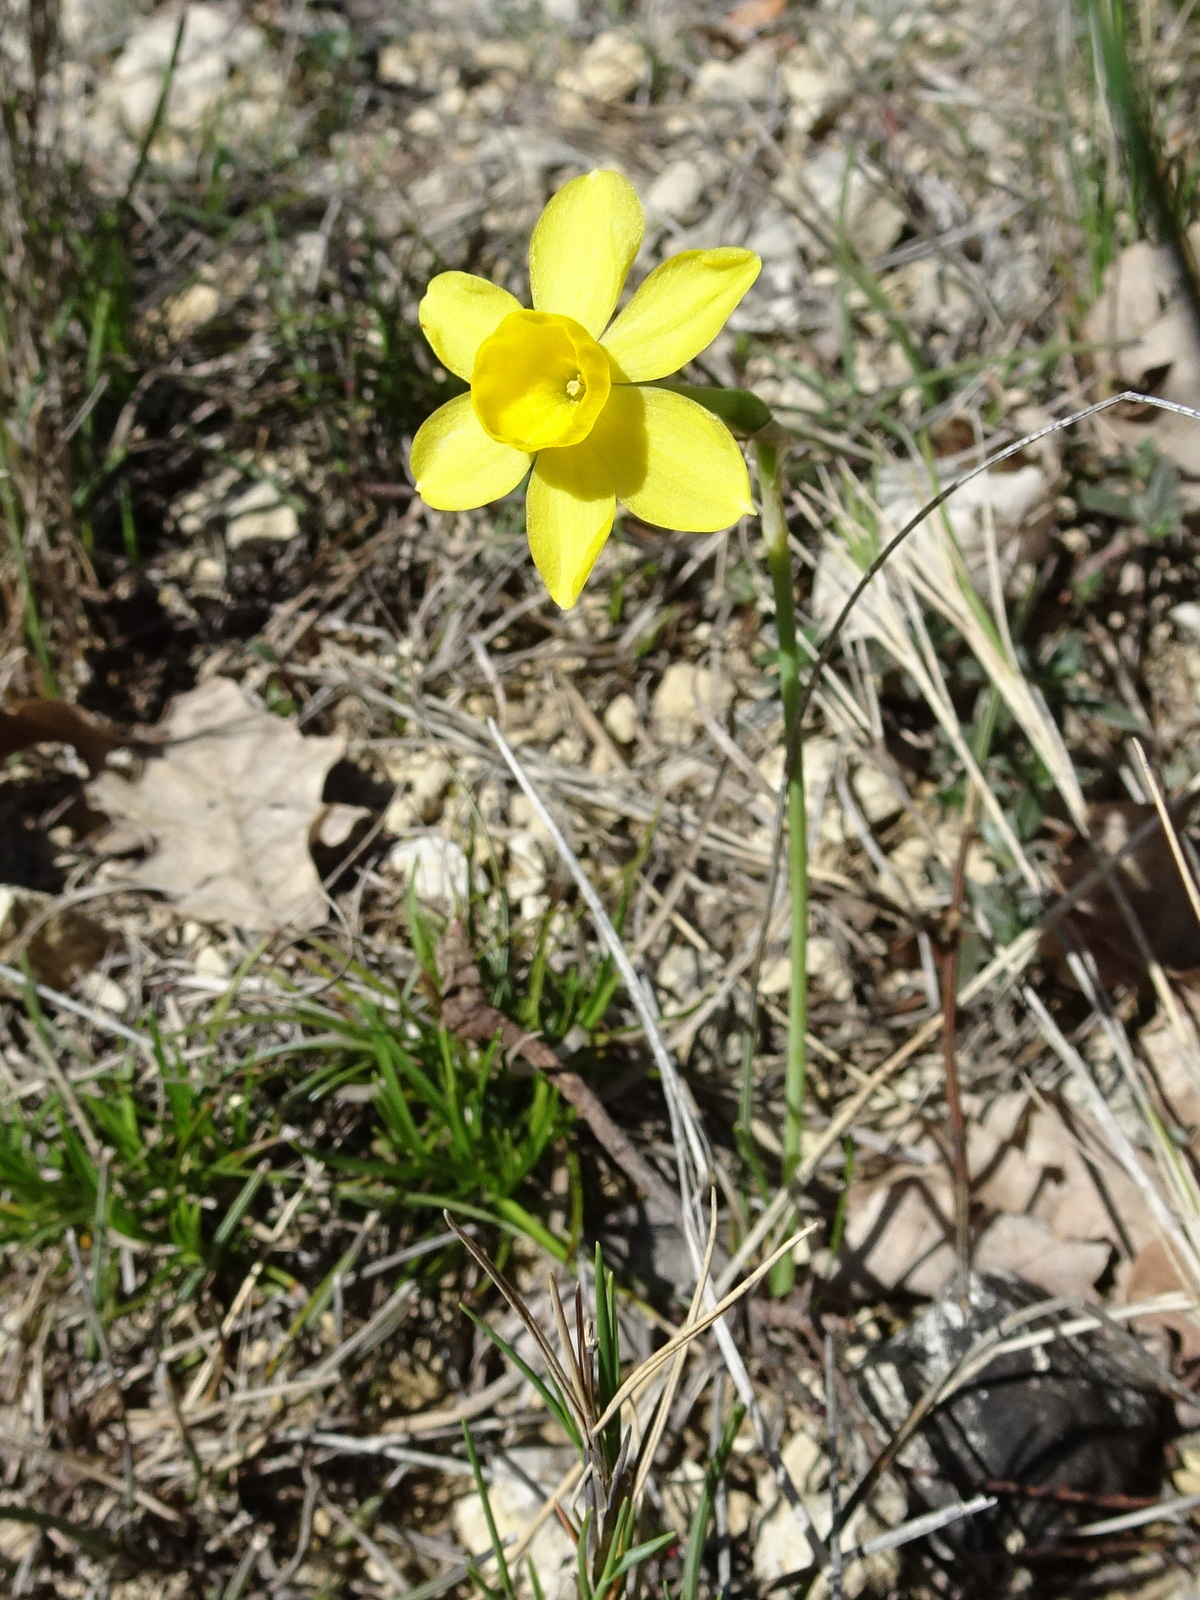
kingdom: Plantae
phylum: Tracheophyta
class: Liliopsida
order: Asparagales
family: Amaryllidaceae
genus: Narcissus
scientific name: Narcissus assoanus
